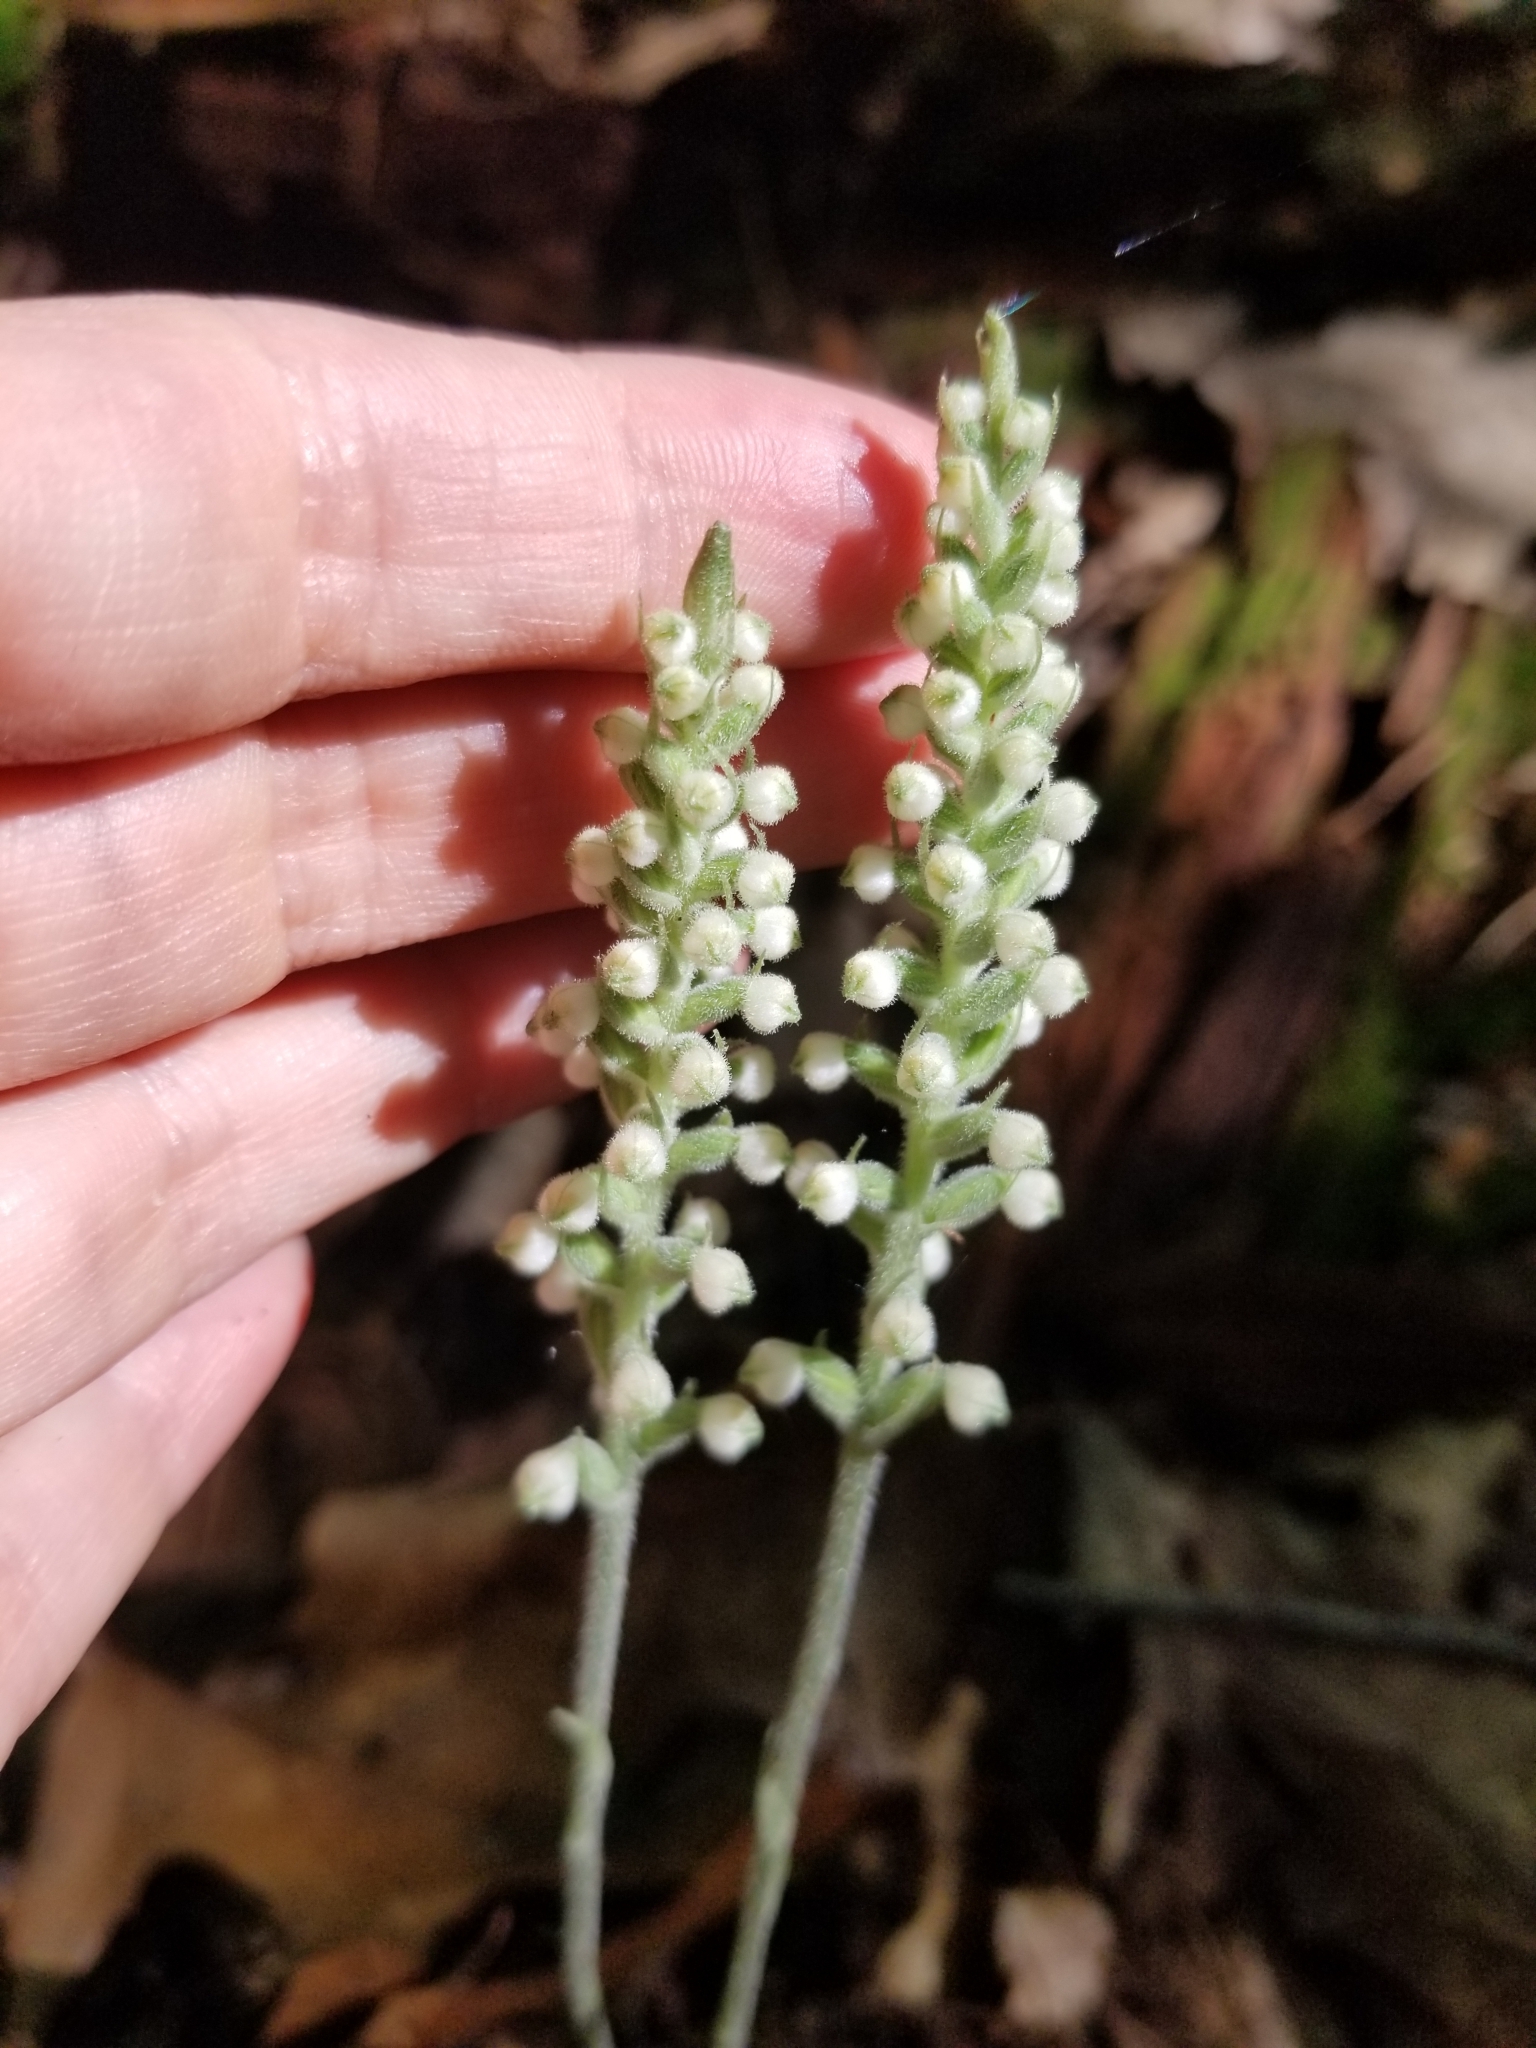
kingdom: Plantae
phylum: Tracheophyta
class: Liliopsida
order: Asparagales
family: Orchidaceae
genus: Goodyera
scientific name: Goodyera pubescens
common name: Downy rattlesnake-plantain
